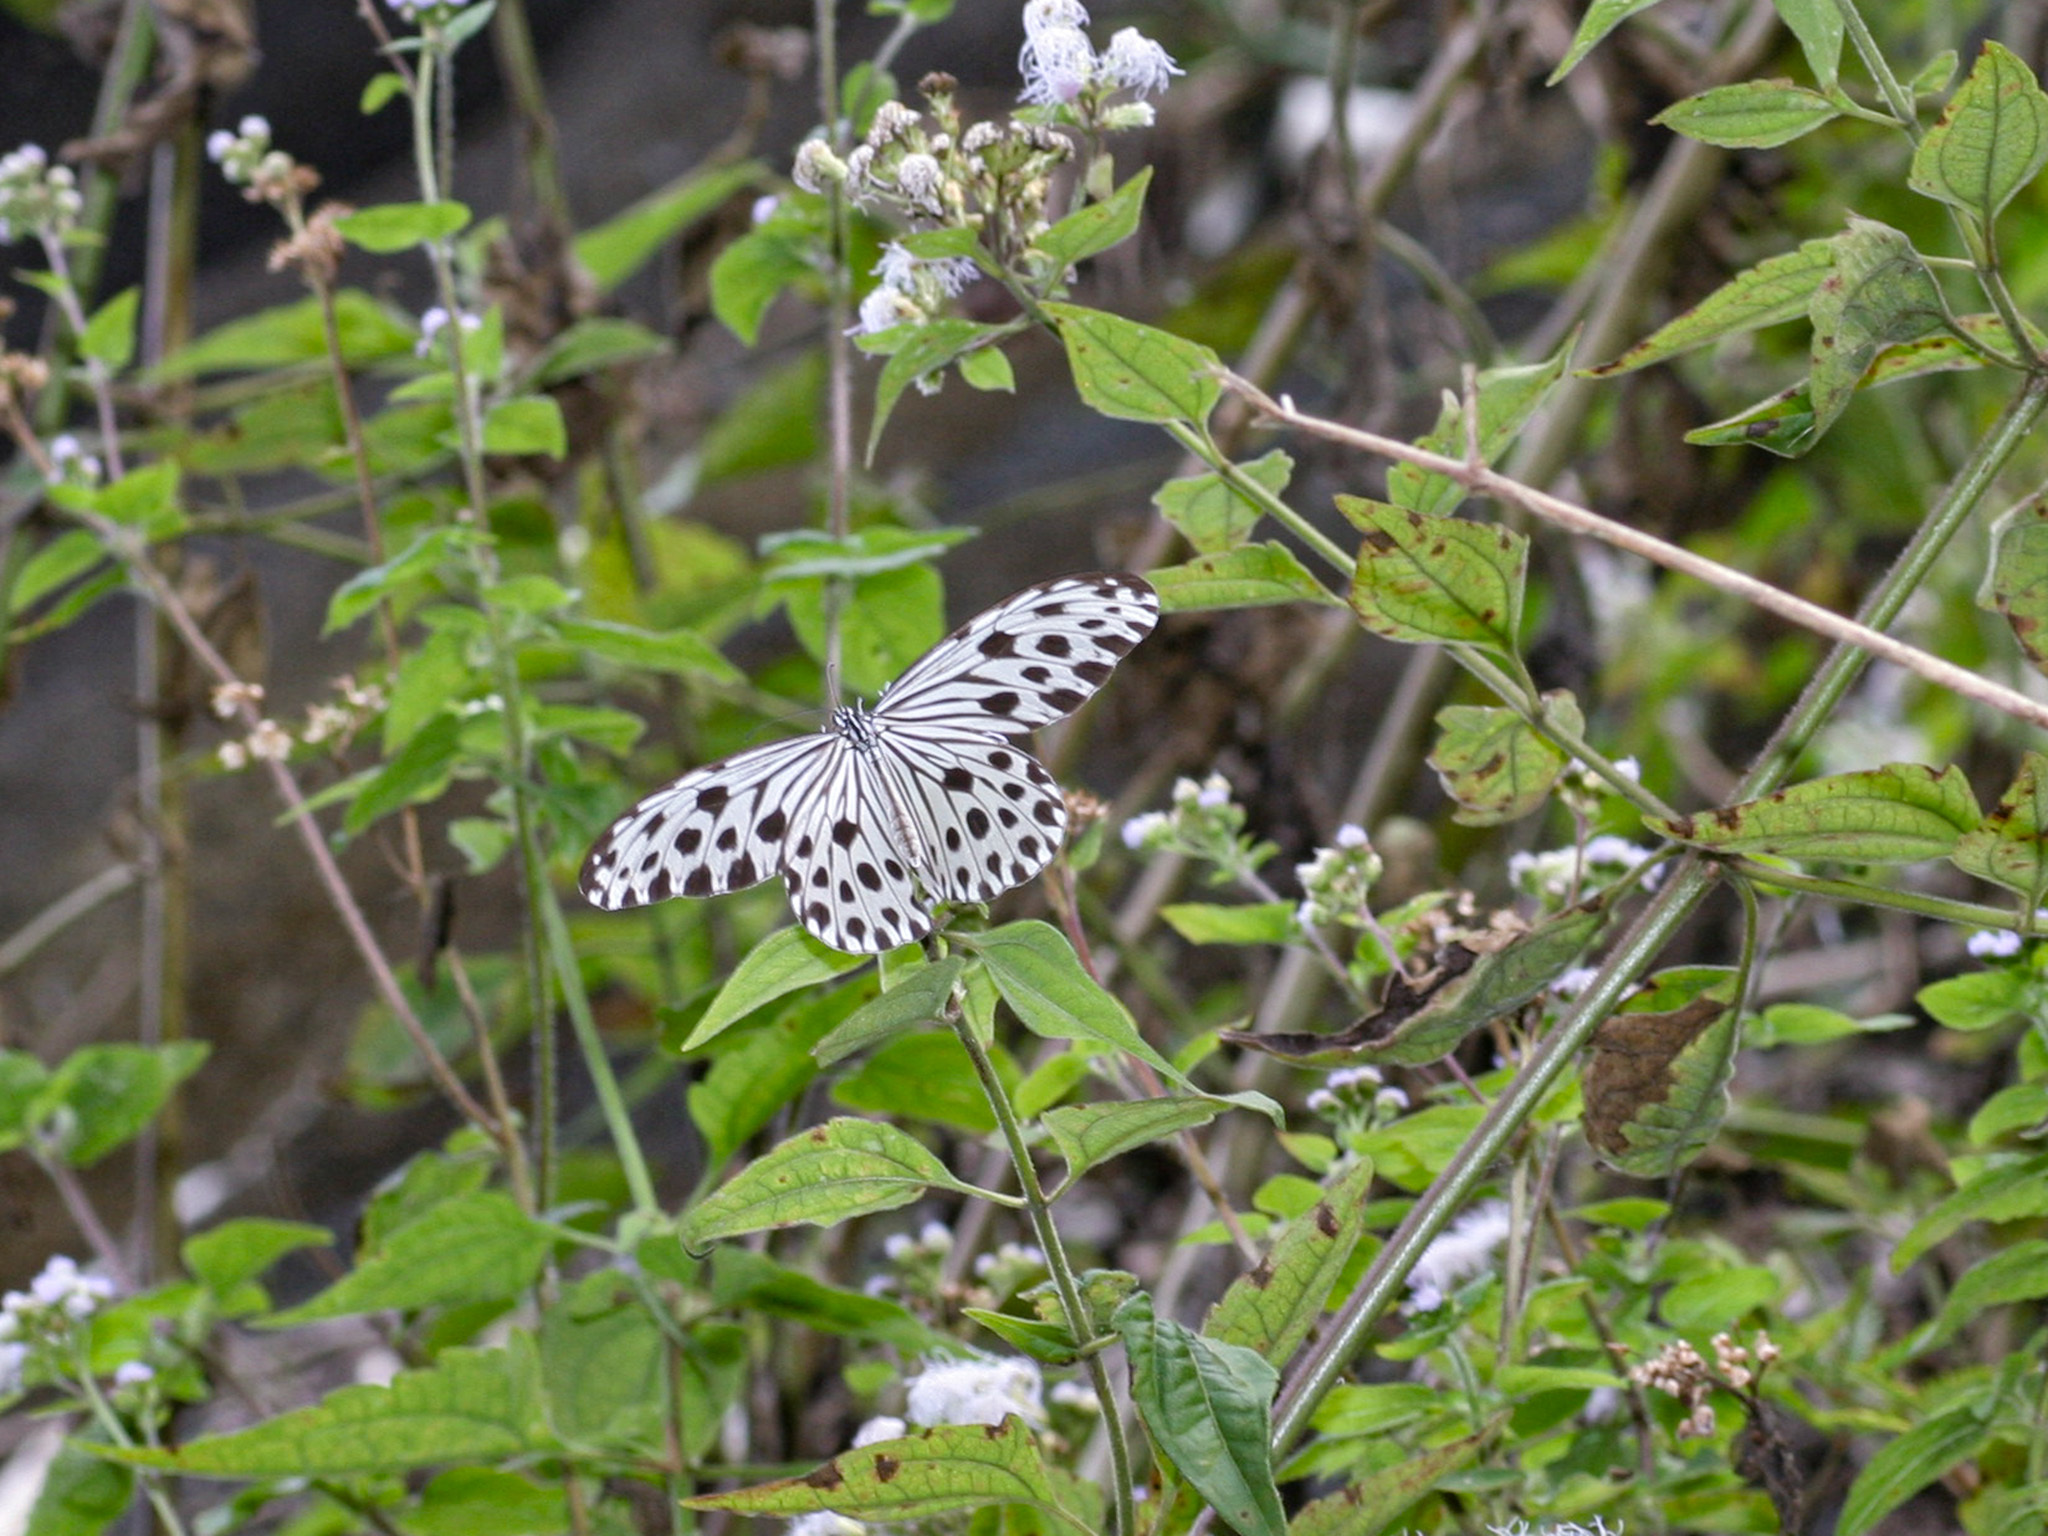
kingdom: Animalia
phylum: Arthropoda
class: Insecta
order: Lepidoptera
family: Nymphalidae
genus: Ideopsis
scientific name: Ideopsis gaura
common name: Smaller wood nymph
